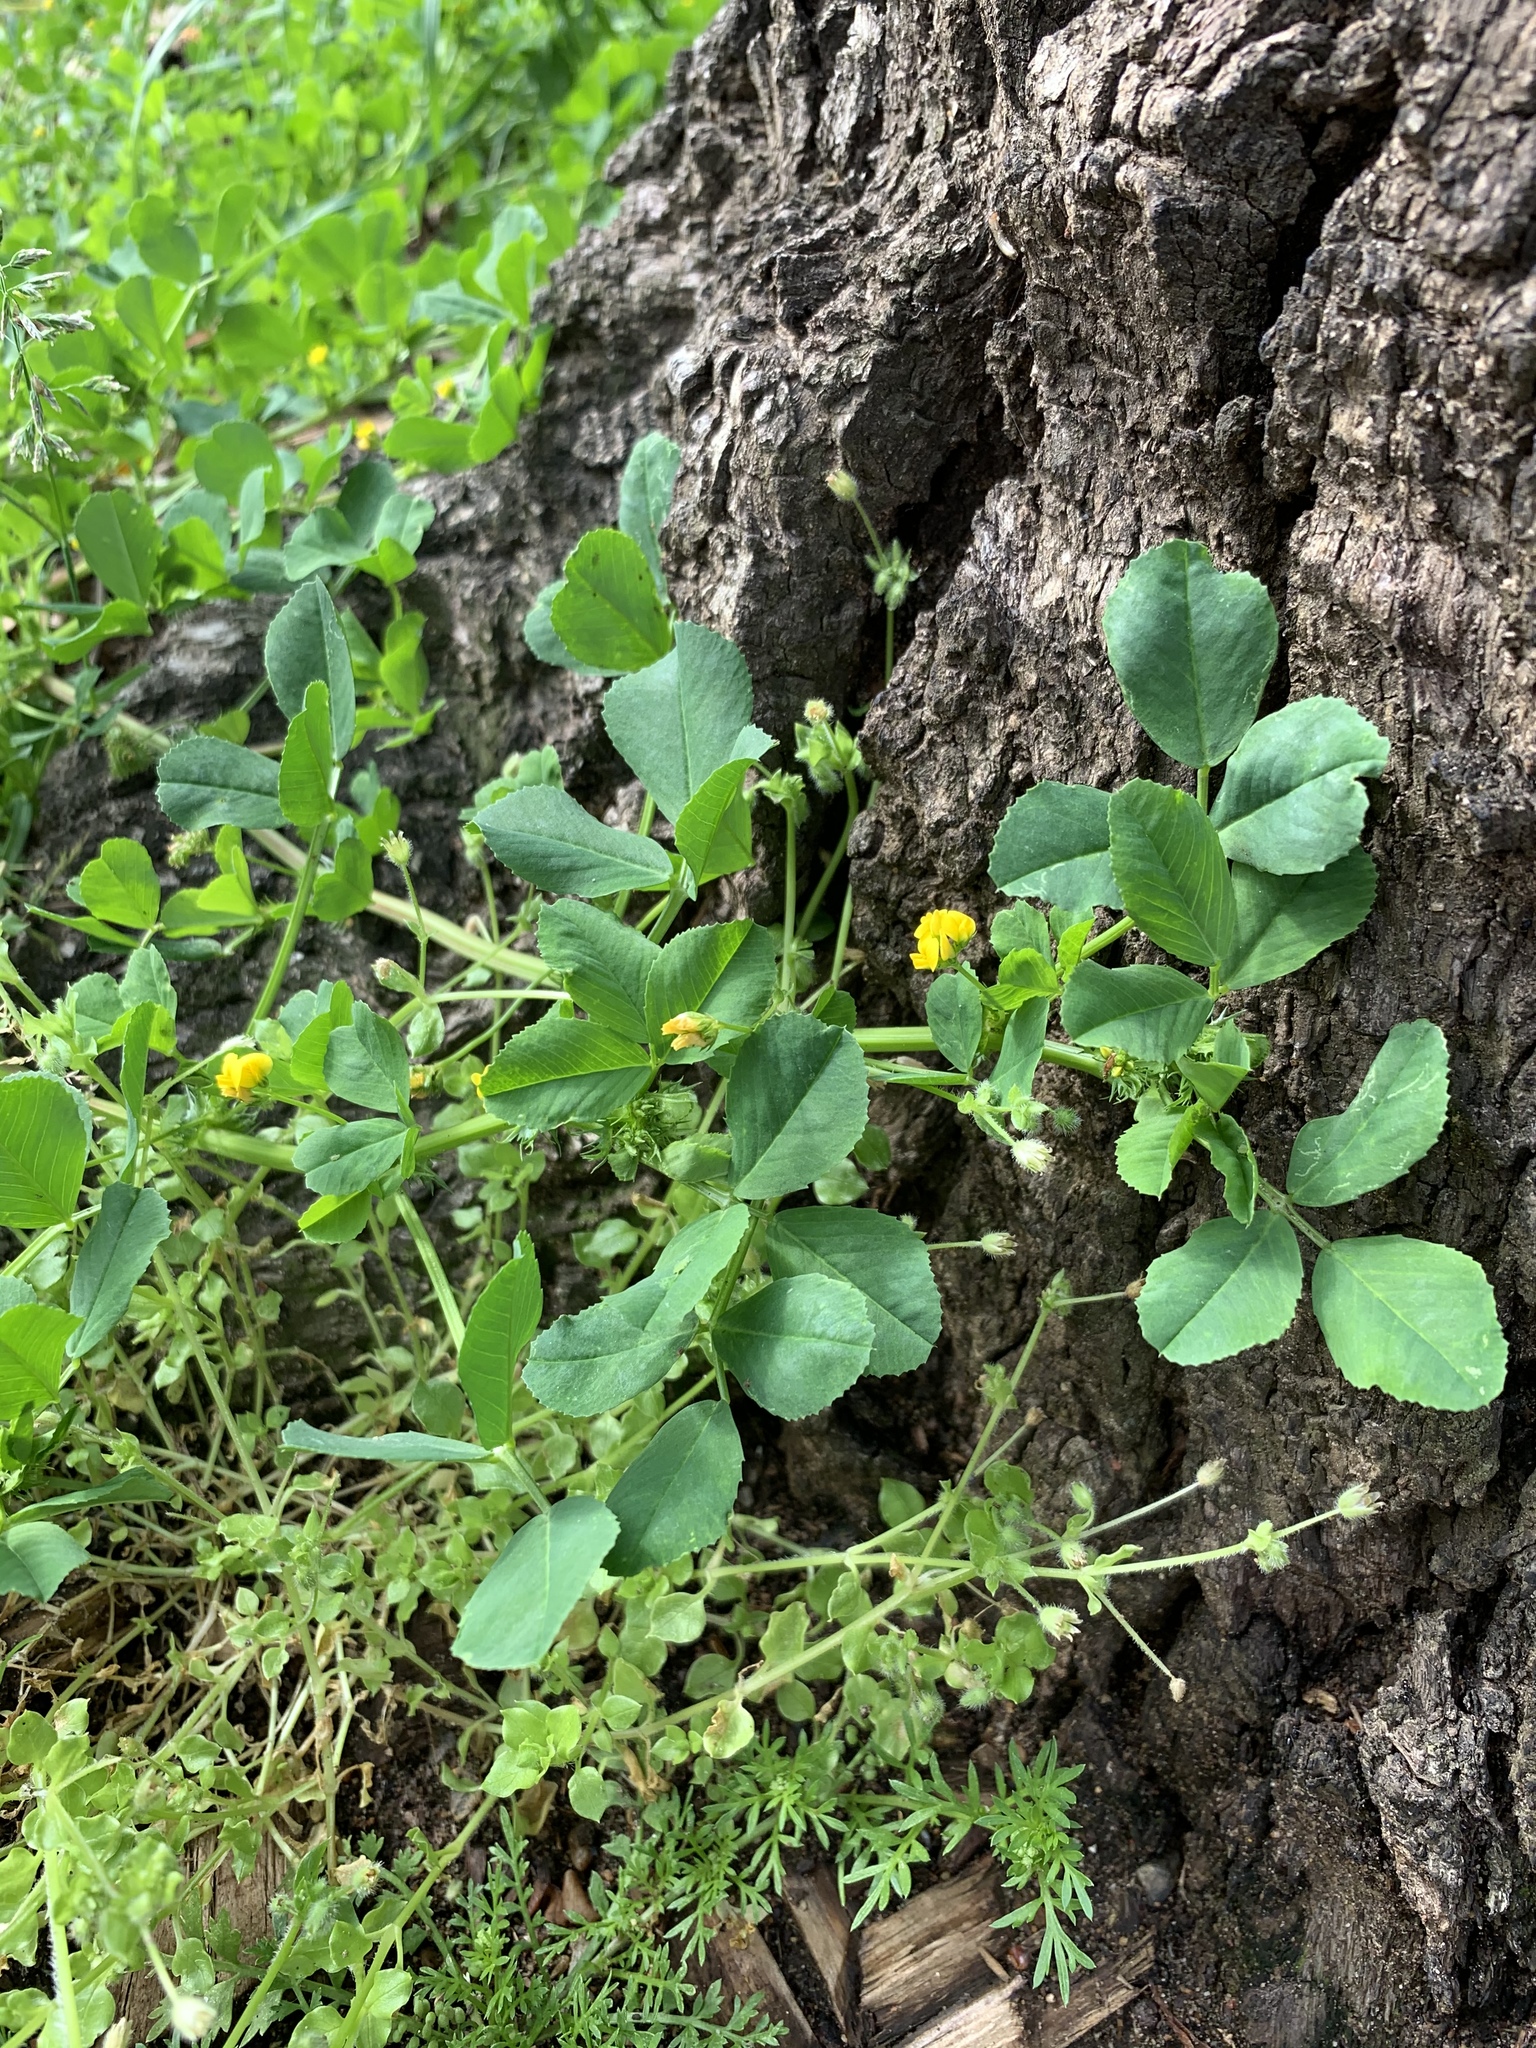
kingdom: Plantae
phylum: Tracheophyta
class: Magnoliopsida
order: Fabales
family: Fabaceae
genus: Medicago
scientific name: Medicago polymorpha
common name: Burclover
